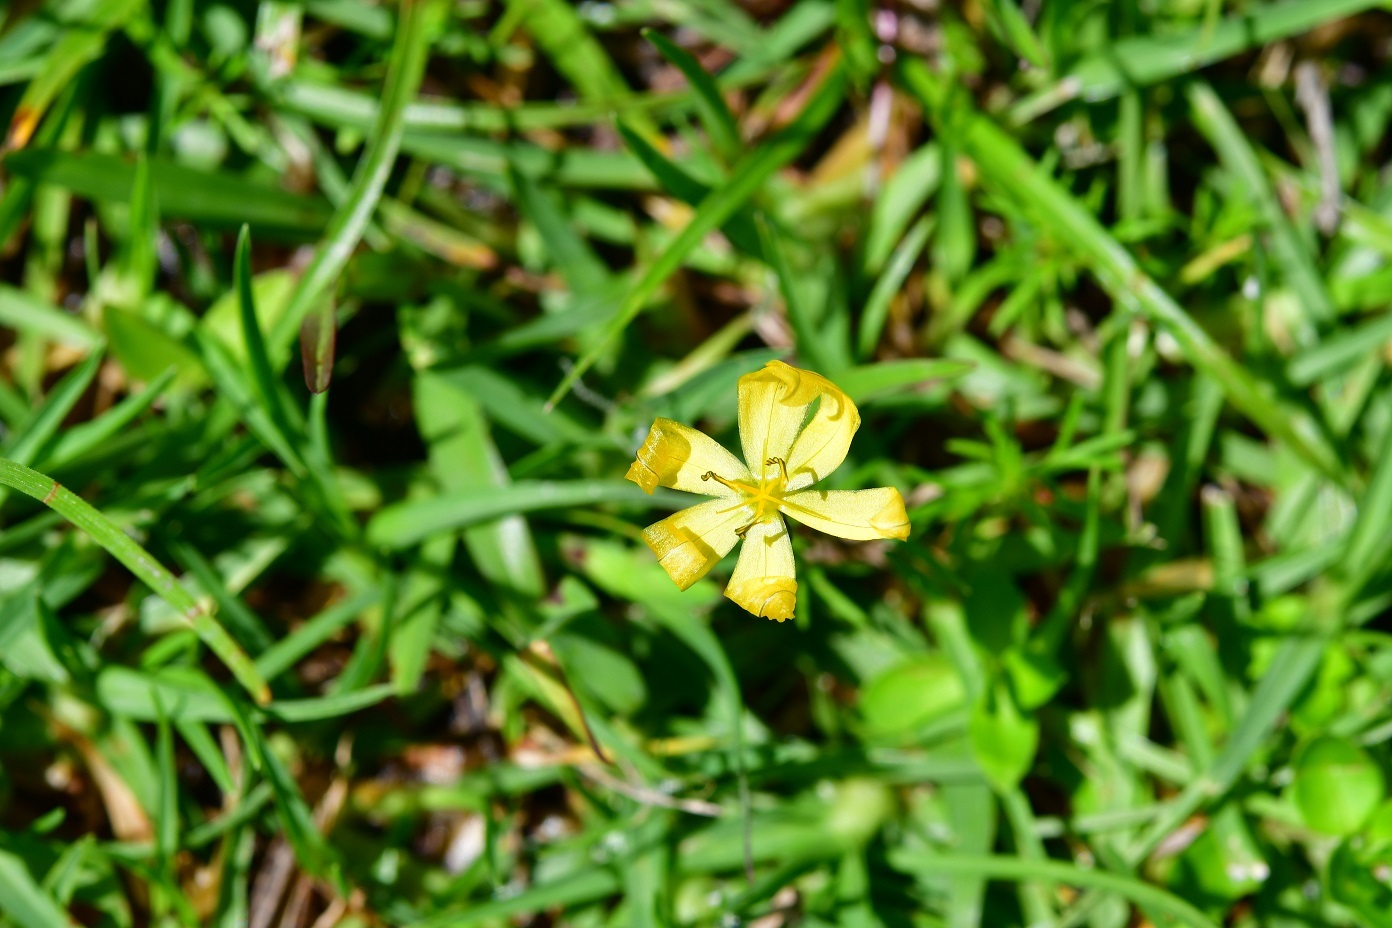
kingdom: Plantae
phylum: Tracheophyta
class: Liliopsida
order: Asparagales
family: Iridaceae
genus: Sisyrinchium
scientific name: Sisyrinchium angustissimum
